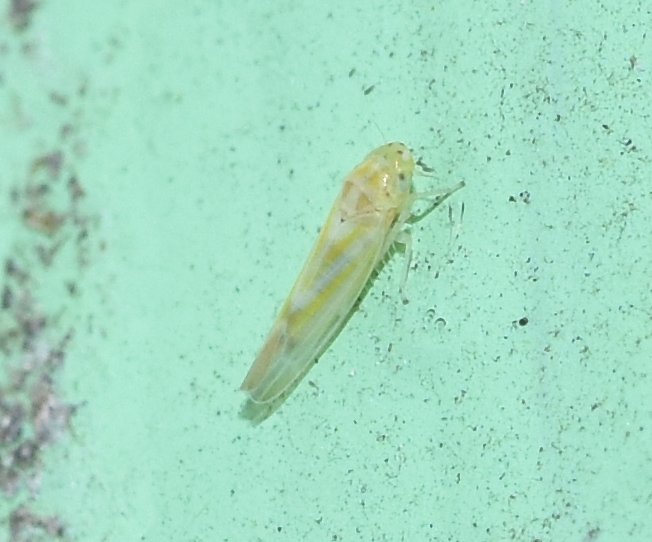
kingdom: Animalia
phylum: Arthropoda
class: Insecta
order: Hemiptera
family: Cicadellidae
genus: Zyginama
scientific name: Zyginama tripunctata
